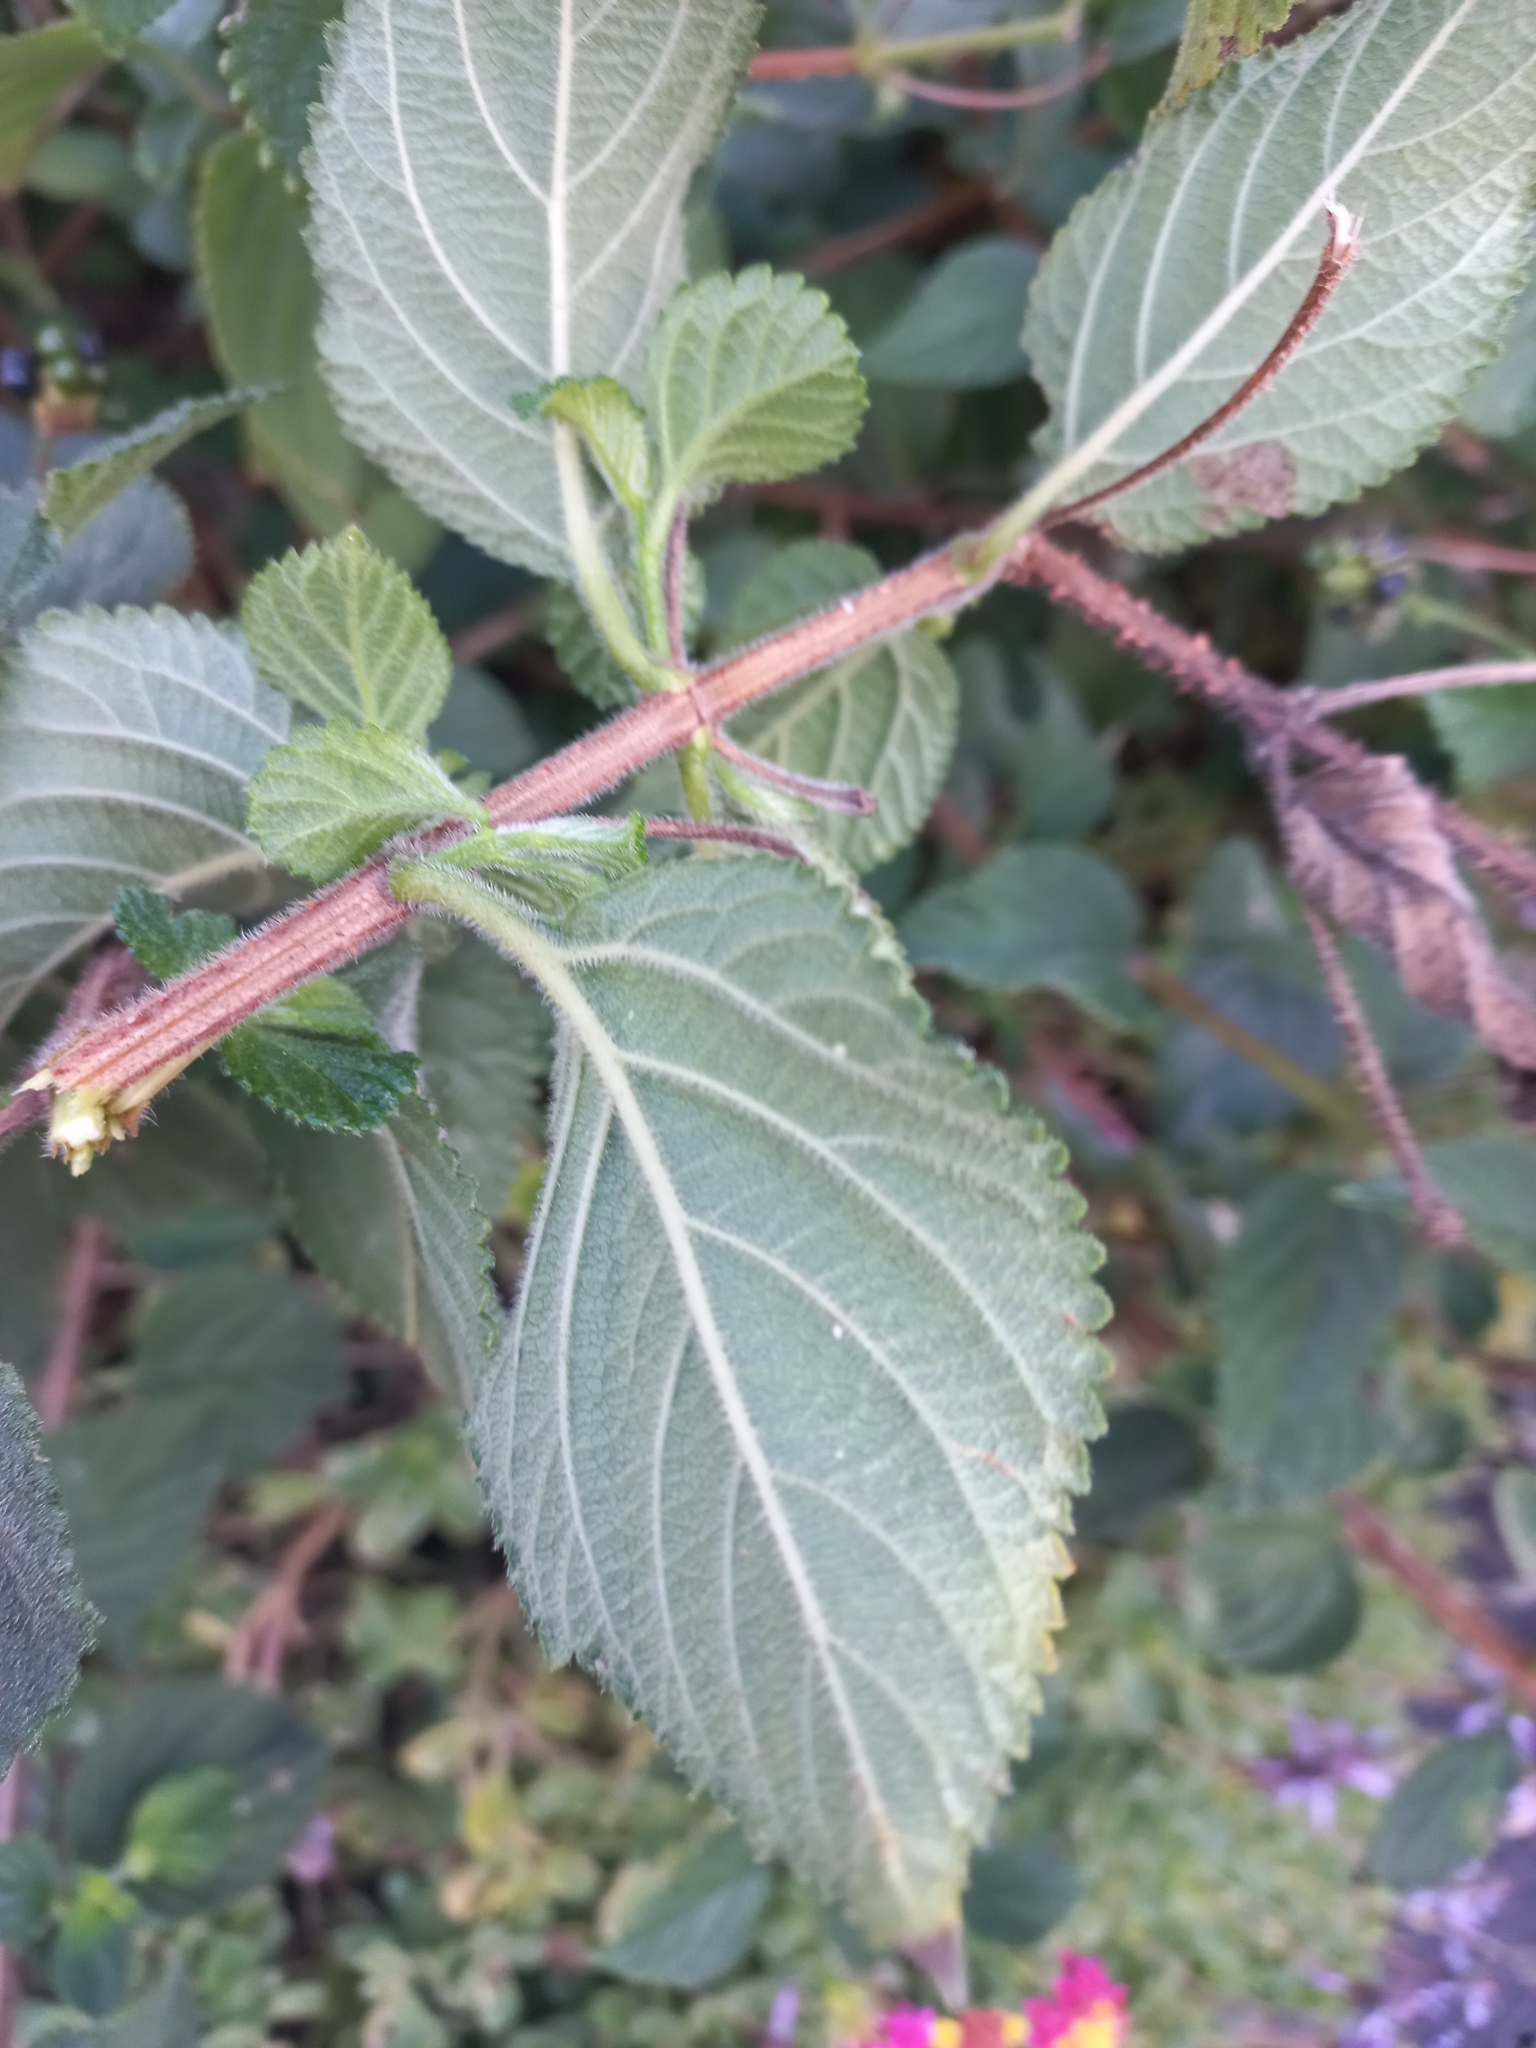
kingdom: Plantae
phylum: Tracheophyta
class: Magnoliopsida
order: Lamiales
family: Verbenaceae
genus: Lantana
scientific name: Lantana camara
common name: Lantana
